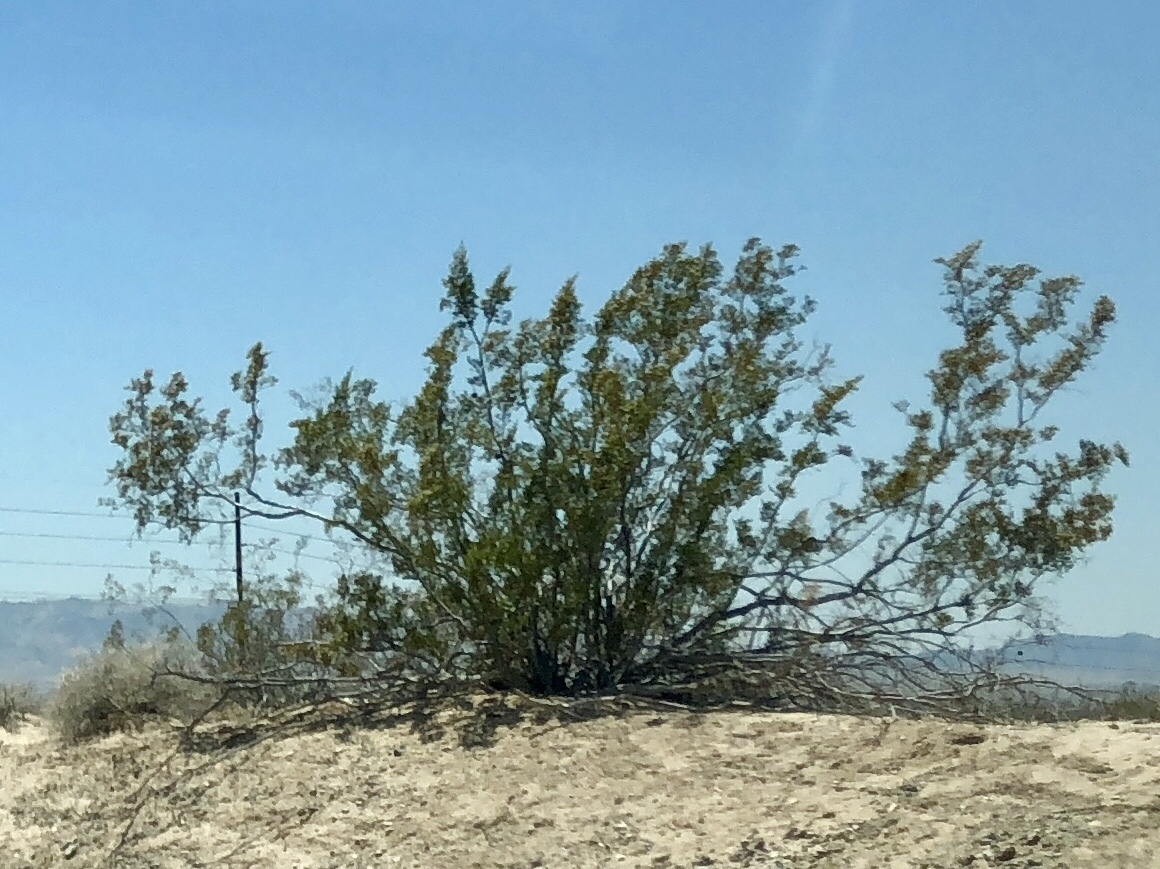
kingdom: Plantae
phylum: Tracheophyta
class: Magnoliopsida
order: Zygophyllales
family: Zygophyllaceae
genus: Larrea
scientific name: Larrea tridentata
